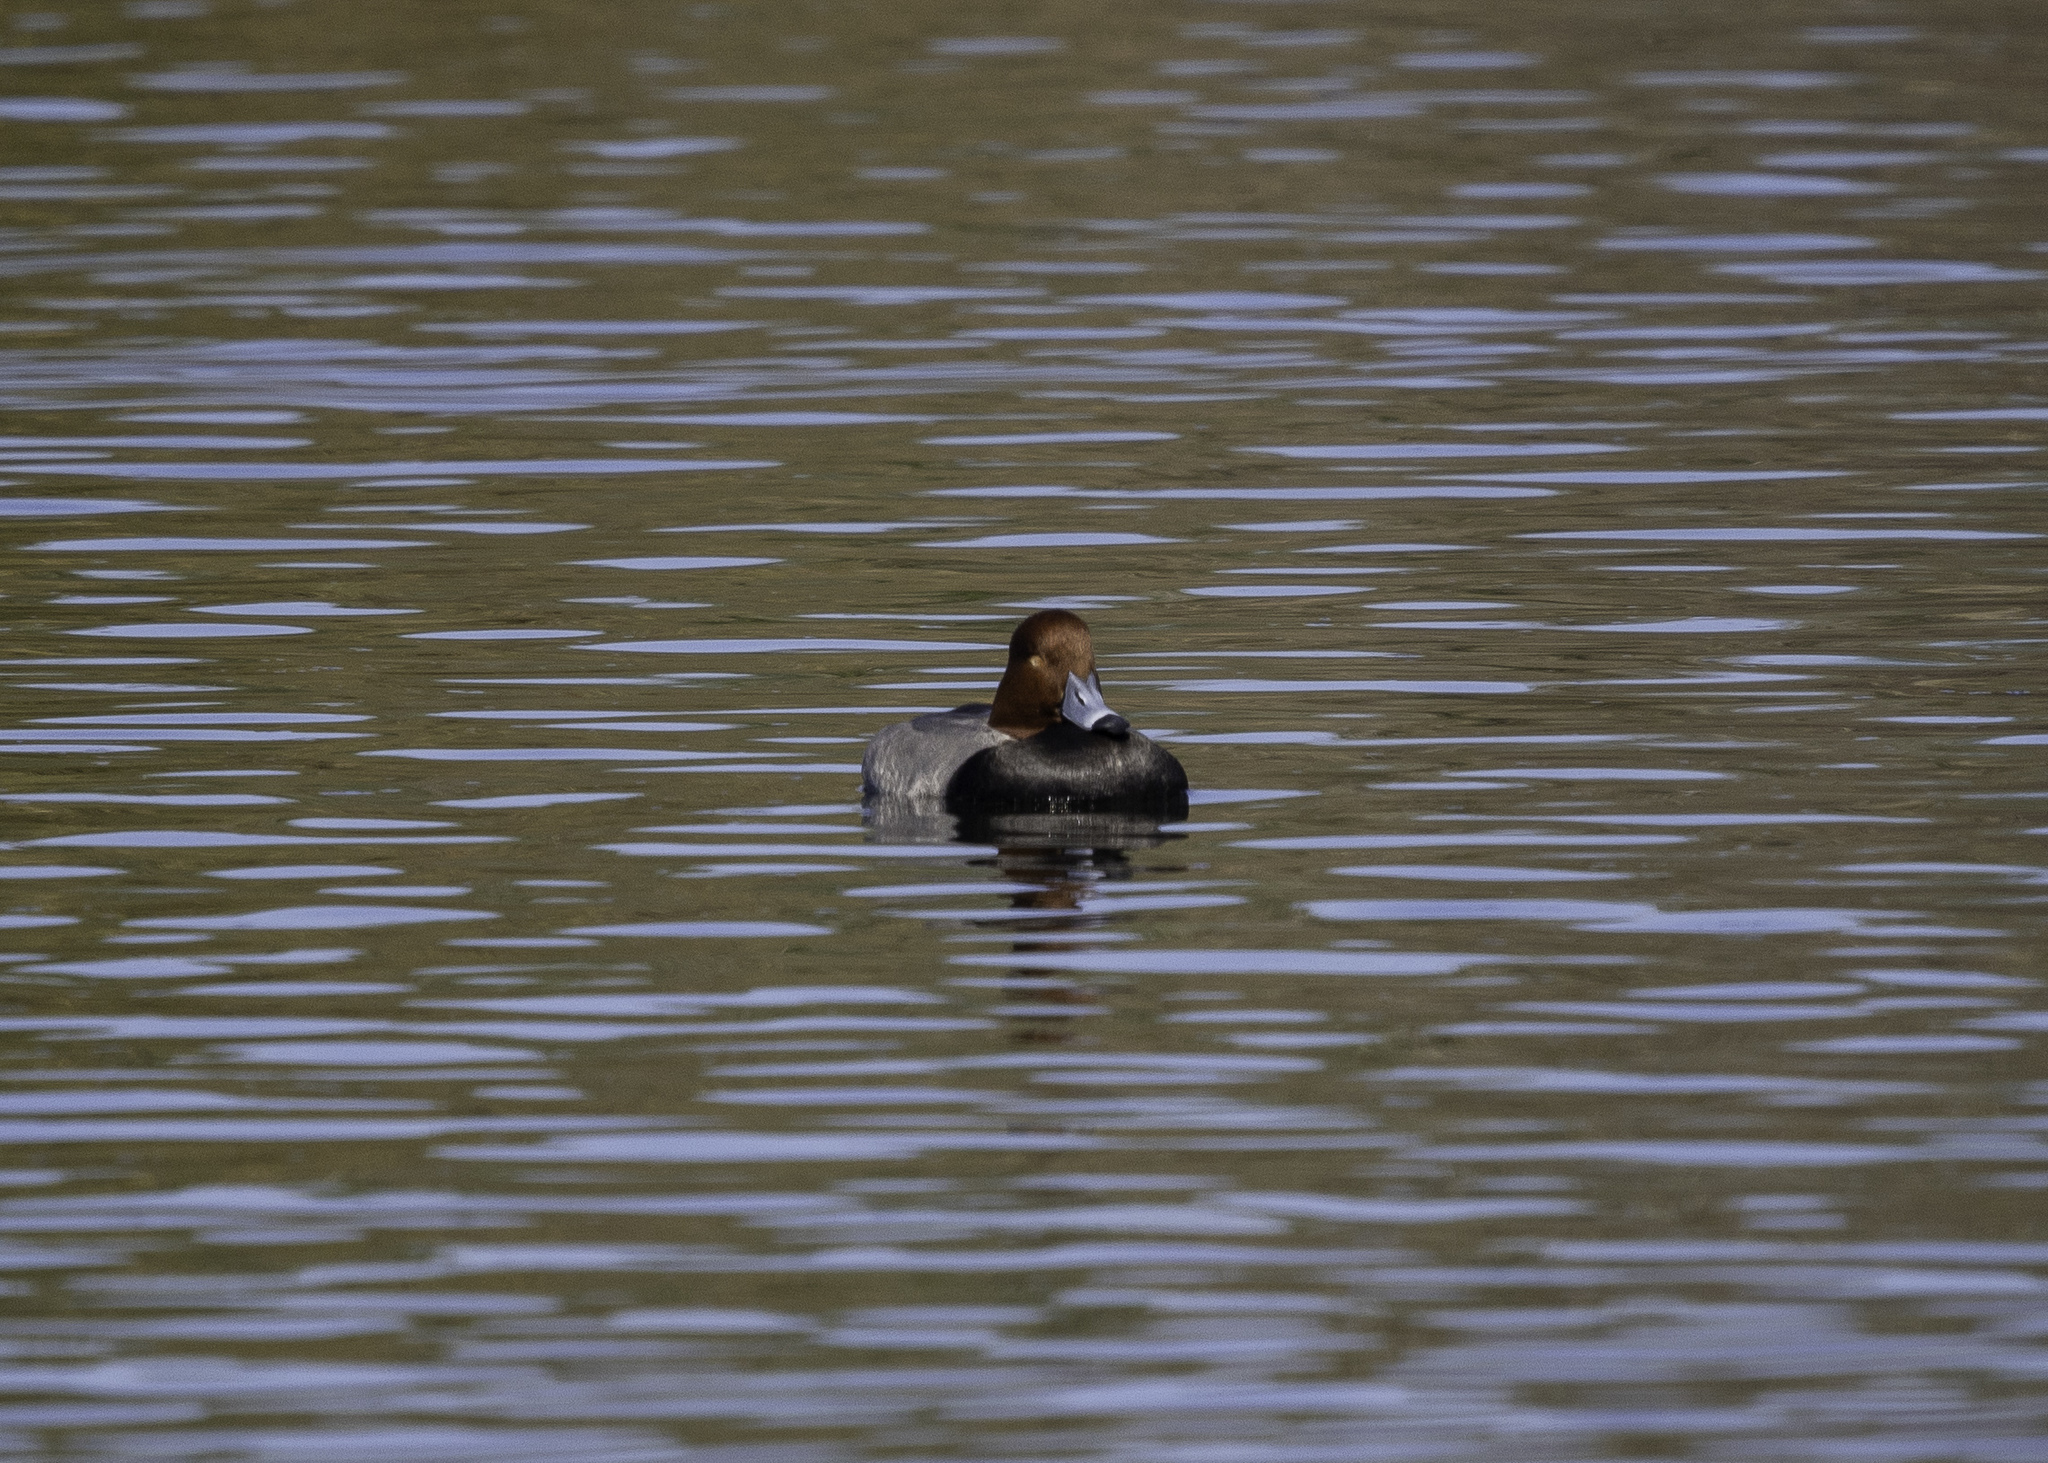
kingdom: Animalia
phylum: Chordata
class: Aves
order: Anseriformes
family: Anatidae
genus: Aythya
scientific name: Aythya americana
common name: Redhead
